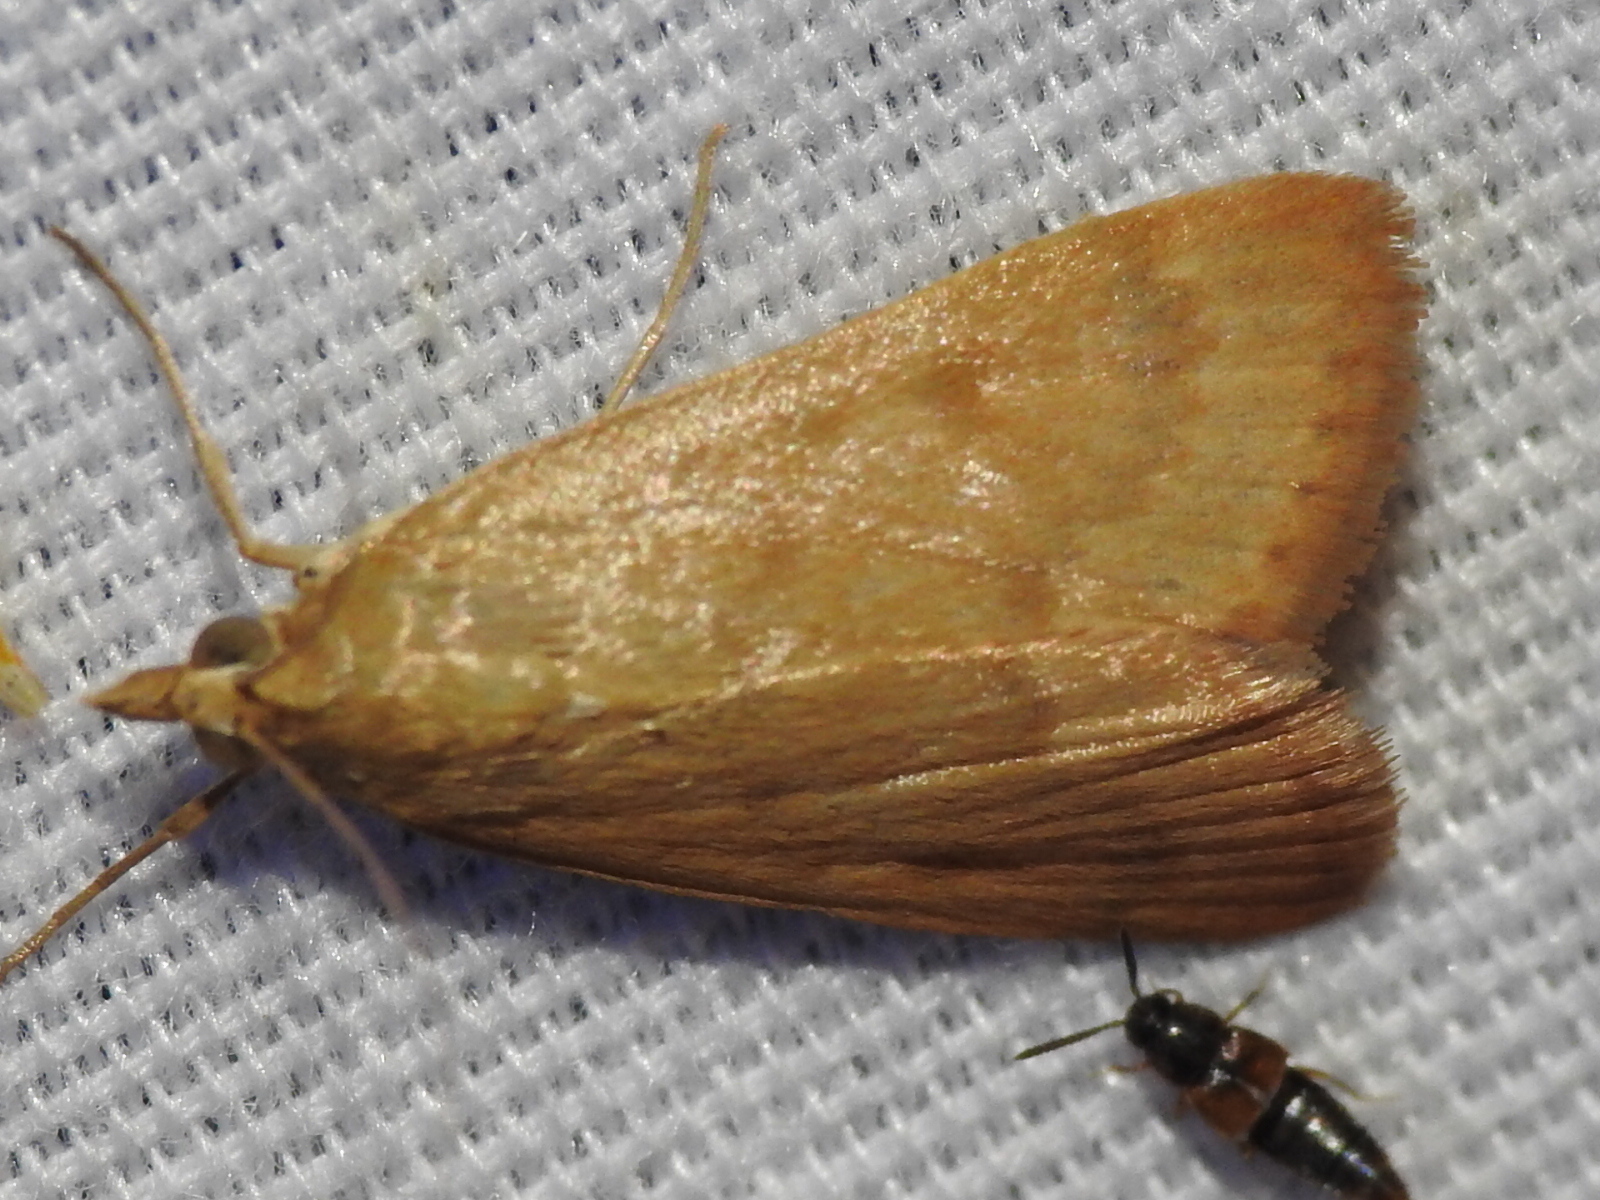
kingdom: Animalia
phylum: Arthropoda
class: Insecta
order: Lepidoptera
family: Crambidae
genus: Achyra
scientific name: Achyra rantalis
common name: Garden webworm
